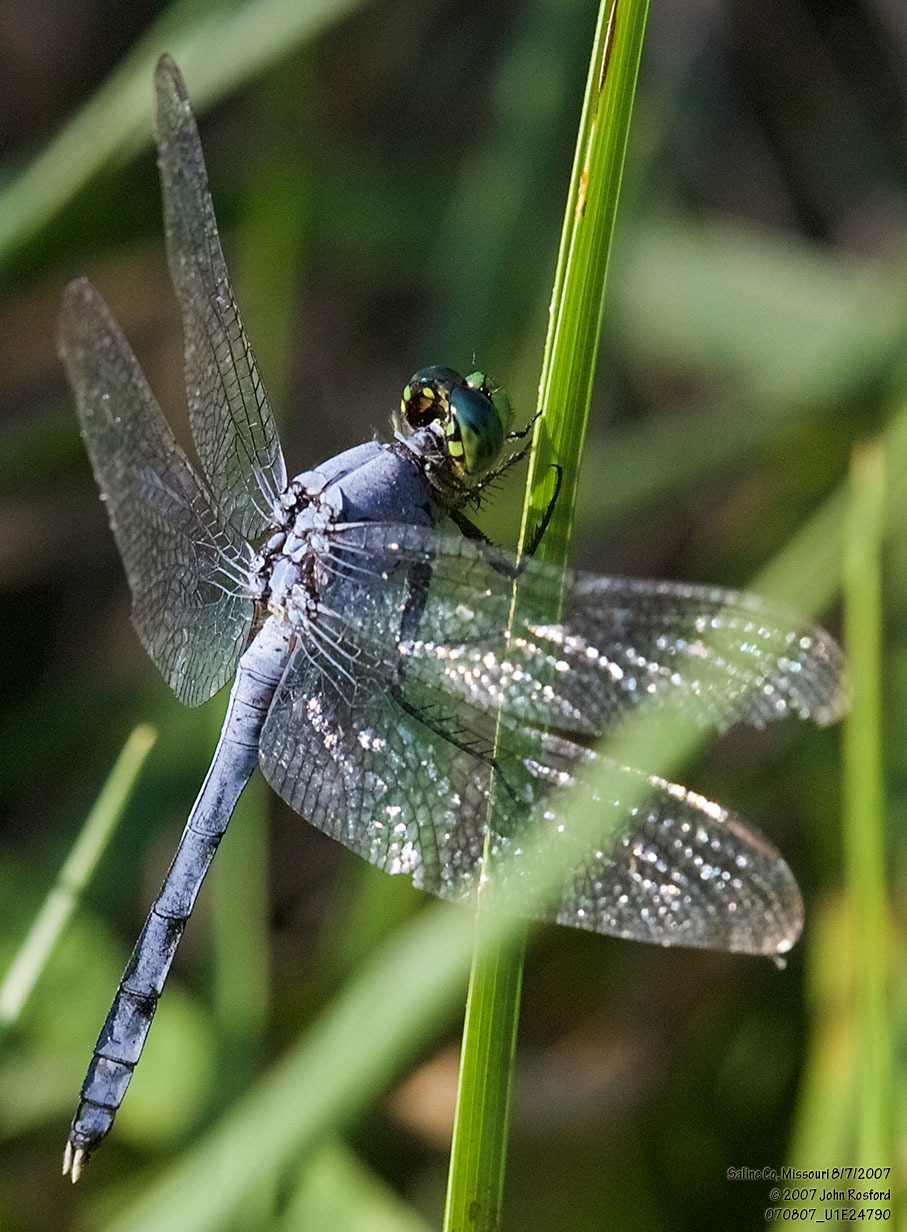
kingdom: Animalia
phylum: Arthropoda
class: Insecta
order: Odonata
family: Libellulidae
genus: Erythemis
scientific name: Erythemis simplicicollis
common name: Eastern pondhawk
